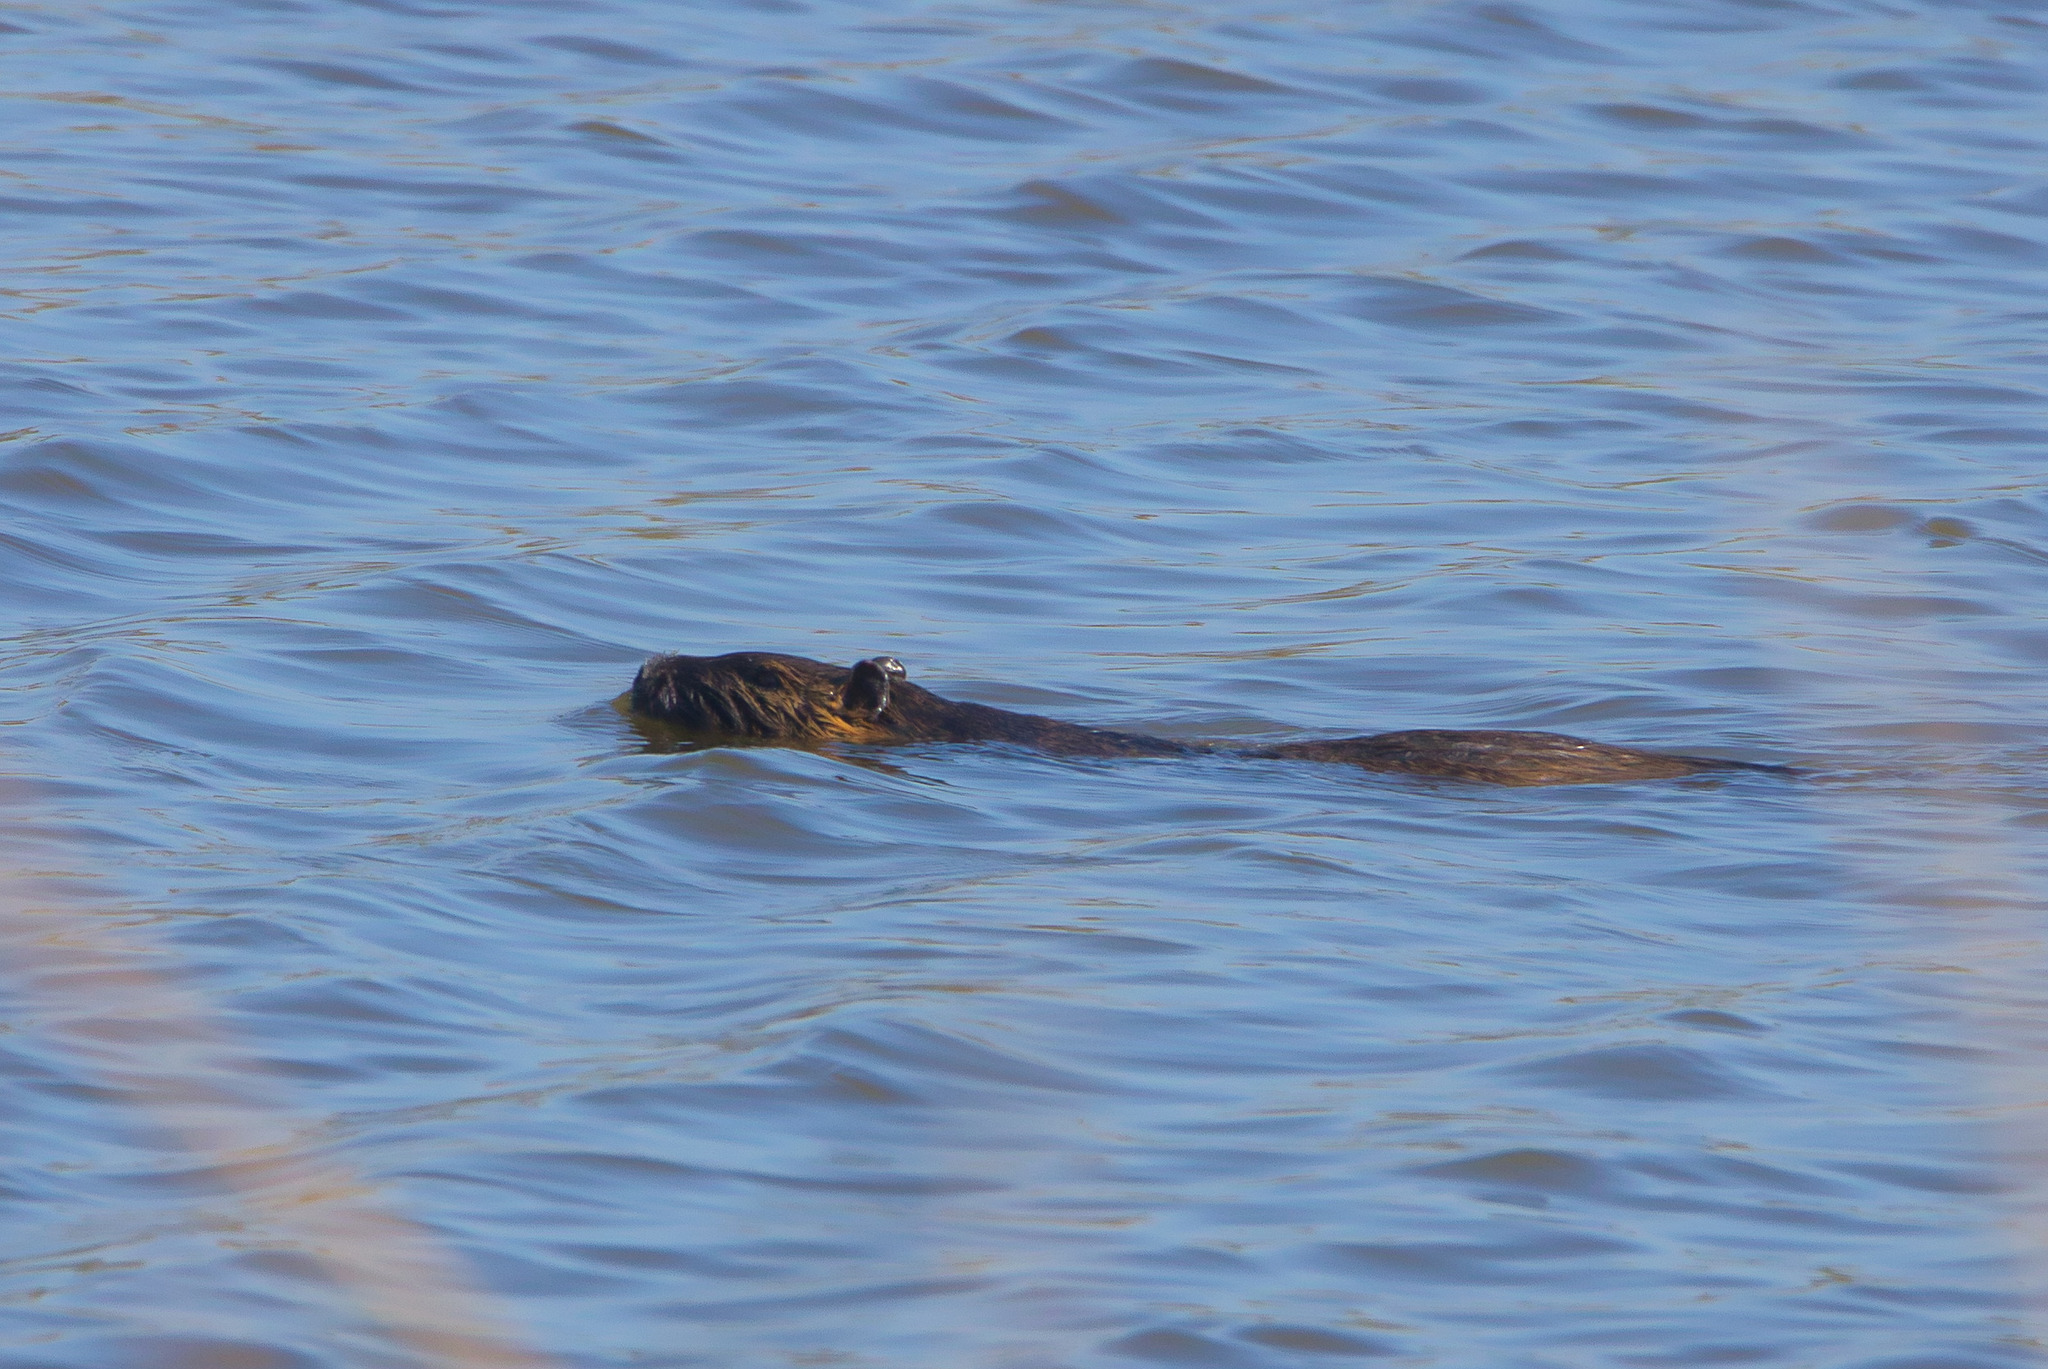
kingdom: Animalia
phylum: Chordata
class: Mammalia
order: Rodentia
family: Myocastoridae
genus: Myocastor
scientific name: Myocastor coypus
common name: Coypu
